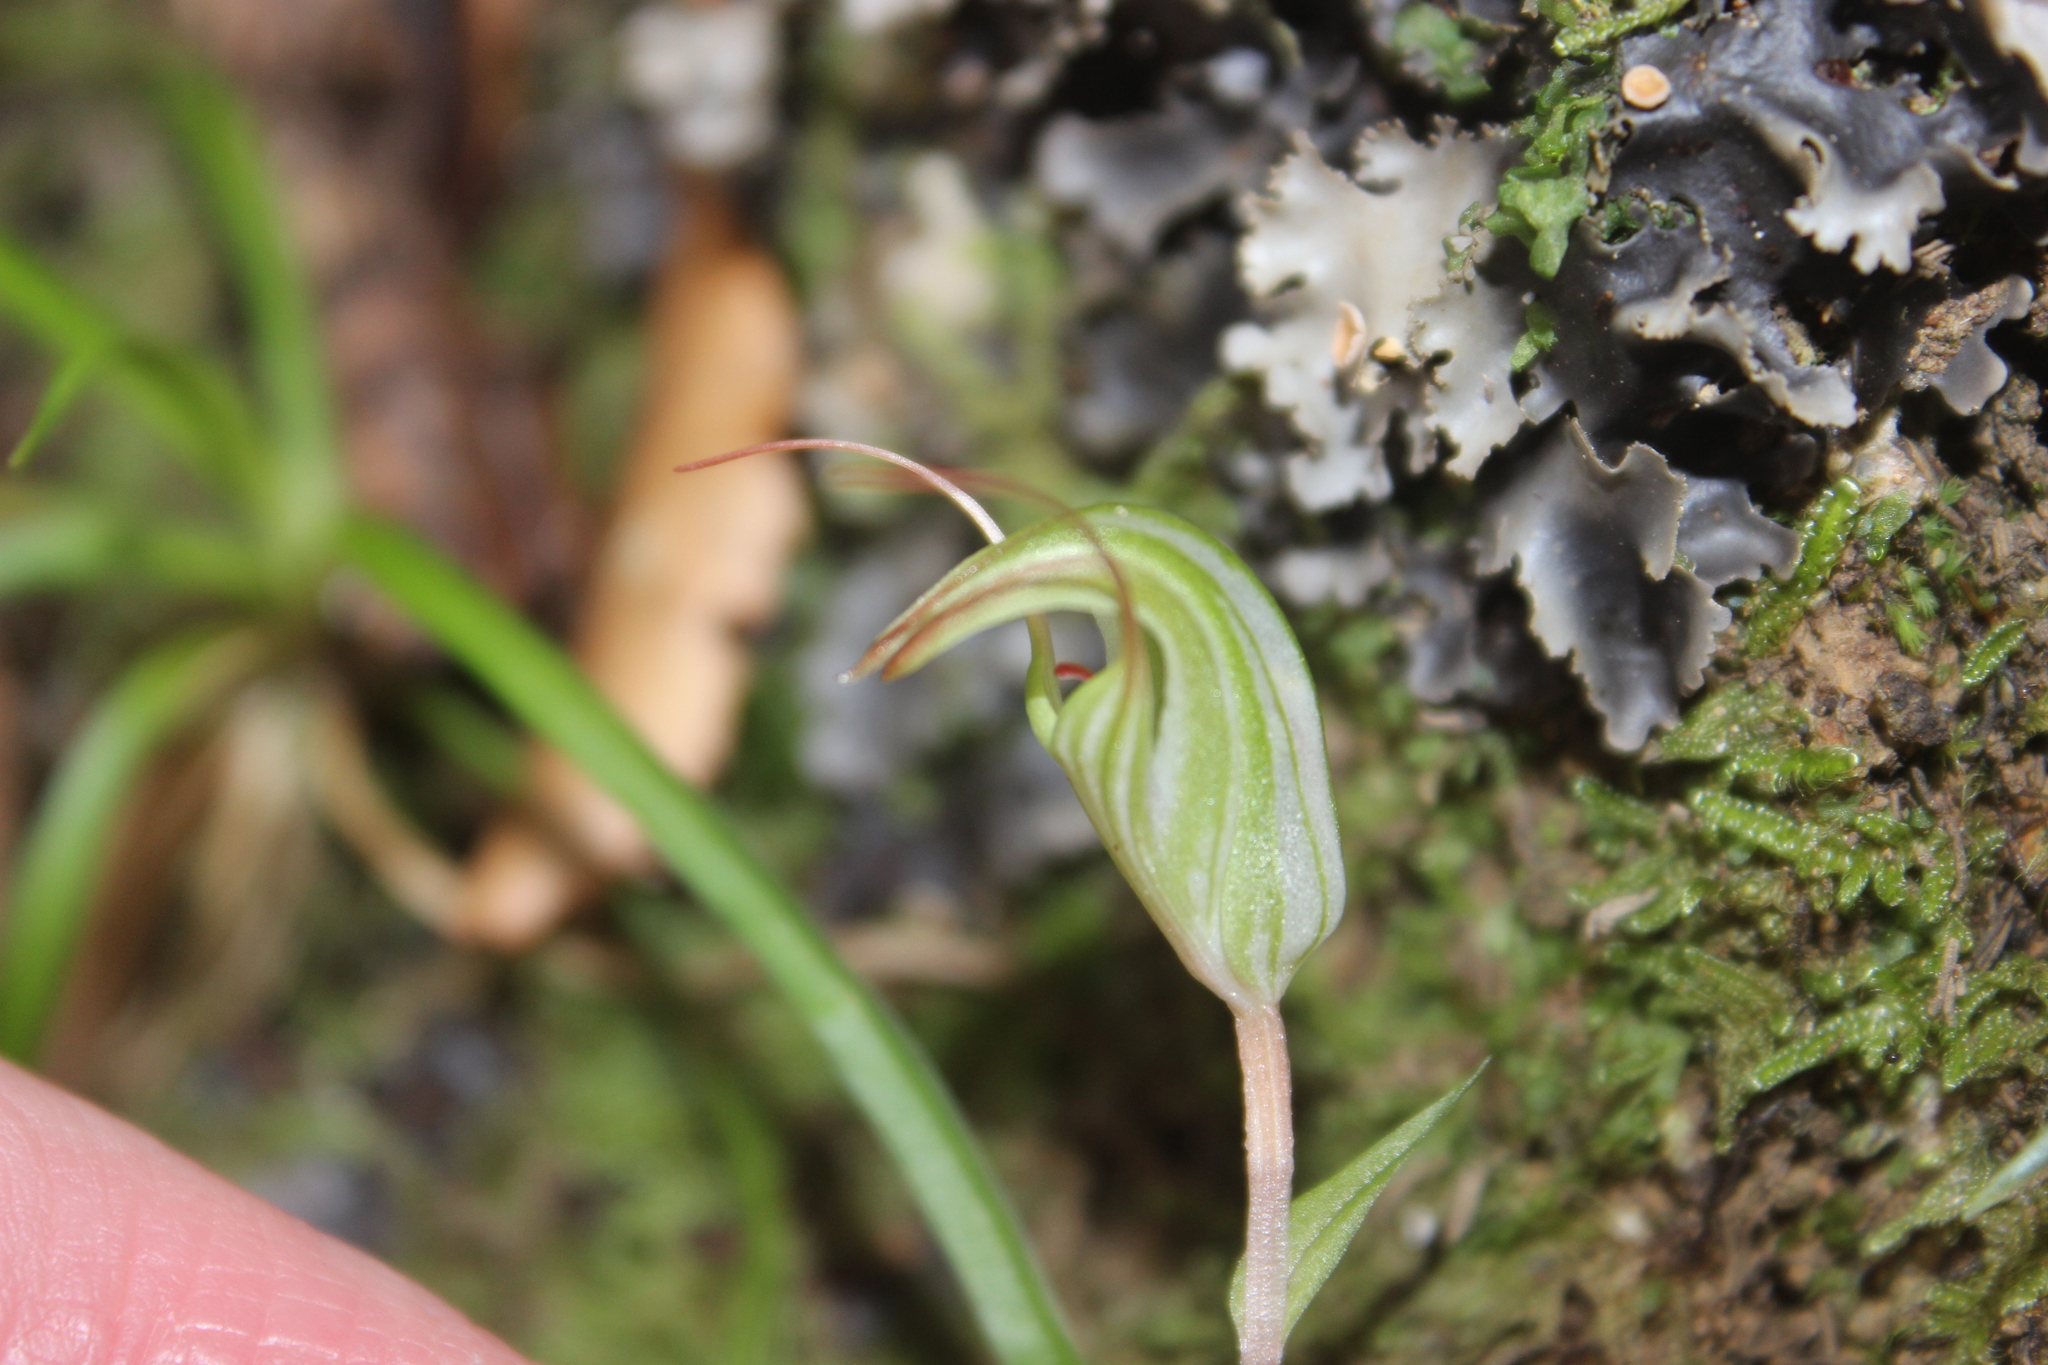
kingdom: Plantae
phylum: Tracheophyta
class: Liliopsida
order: Asparagales
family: Orchidaceae
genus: Pterostylis
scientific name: Pterostylis alobula
